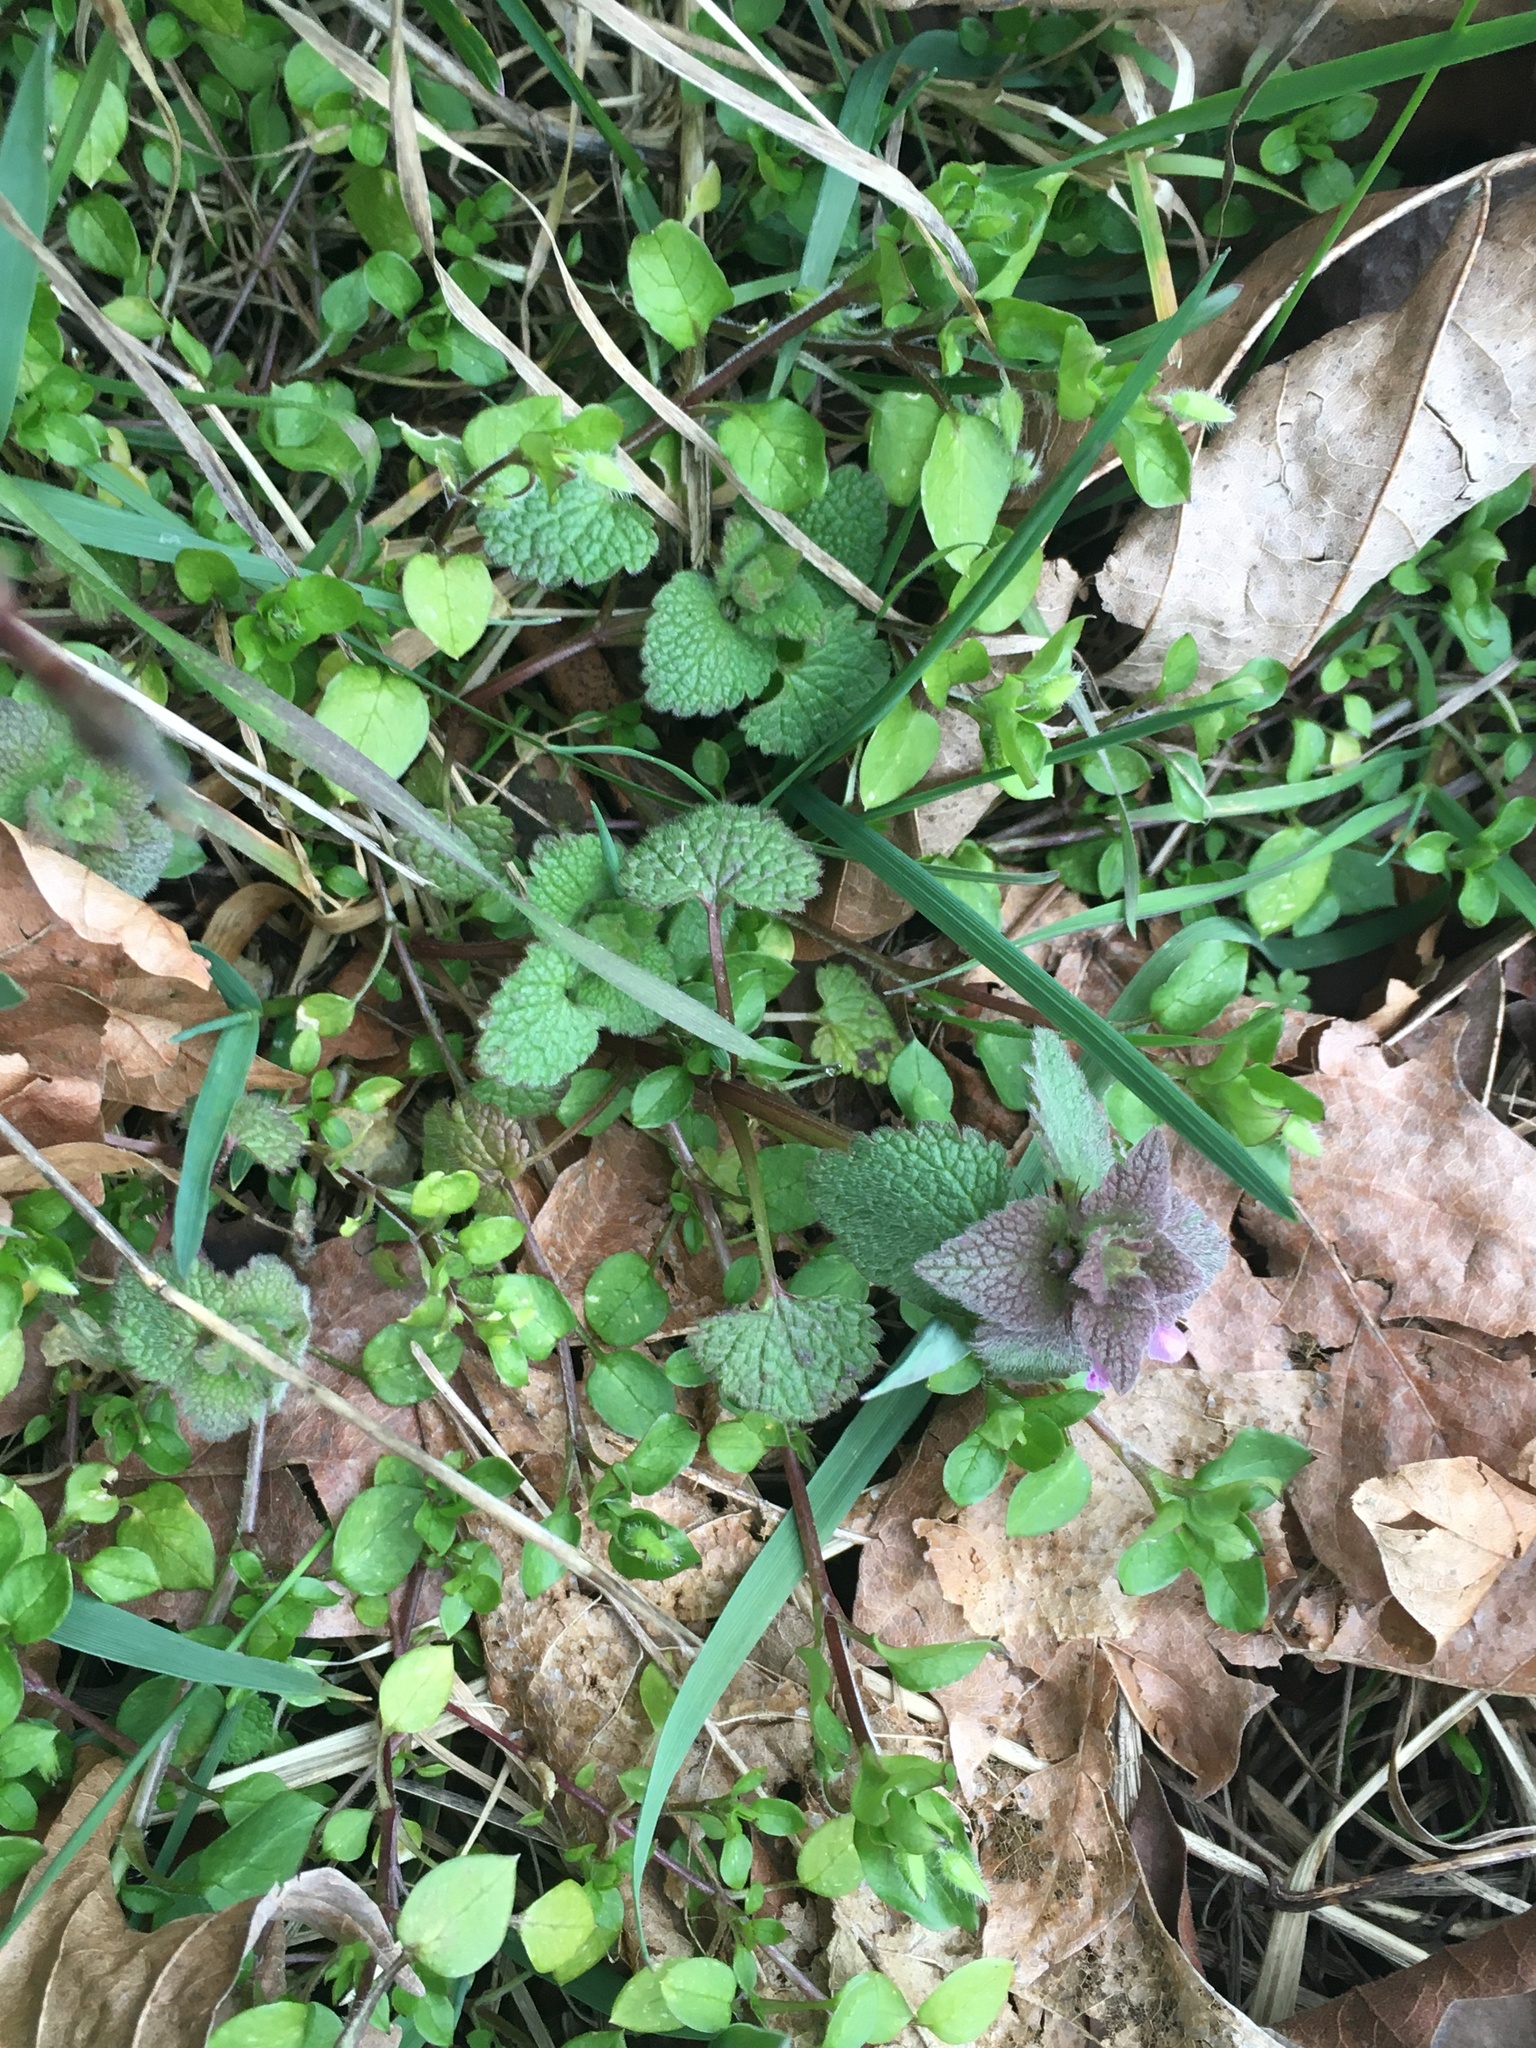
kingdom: Plantae
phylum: Tracheophyta
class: Magnoliopsida
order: Lamiales
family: Lamiaceae
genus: Lamium
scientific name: Lamium purpureum
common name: Red dead-nettle
